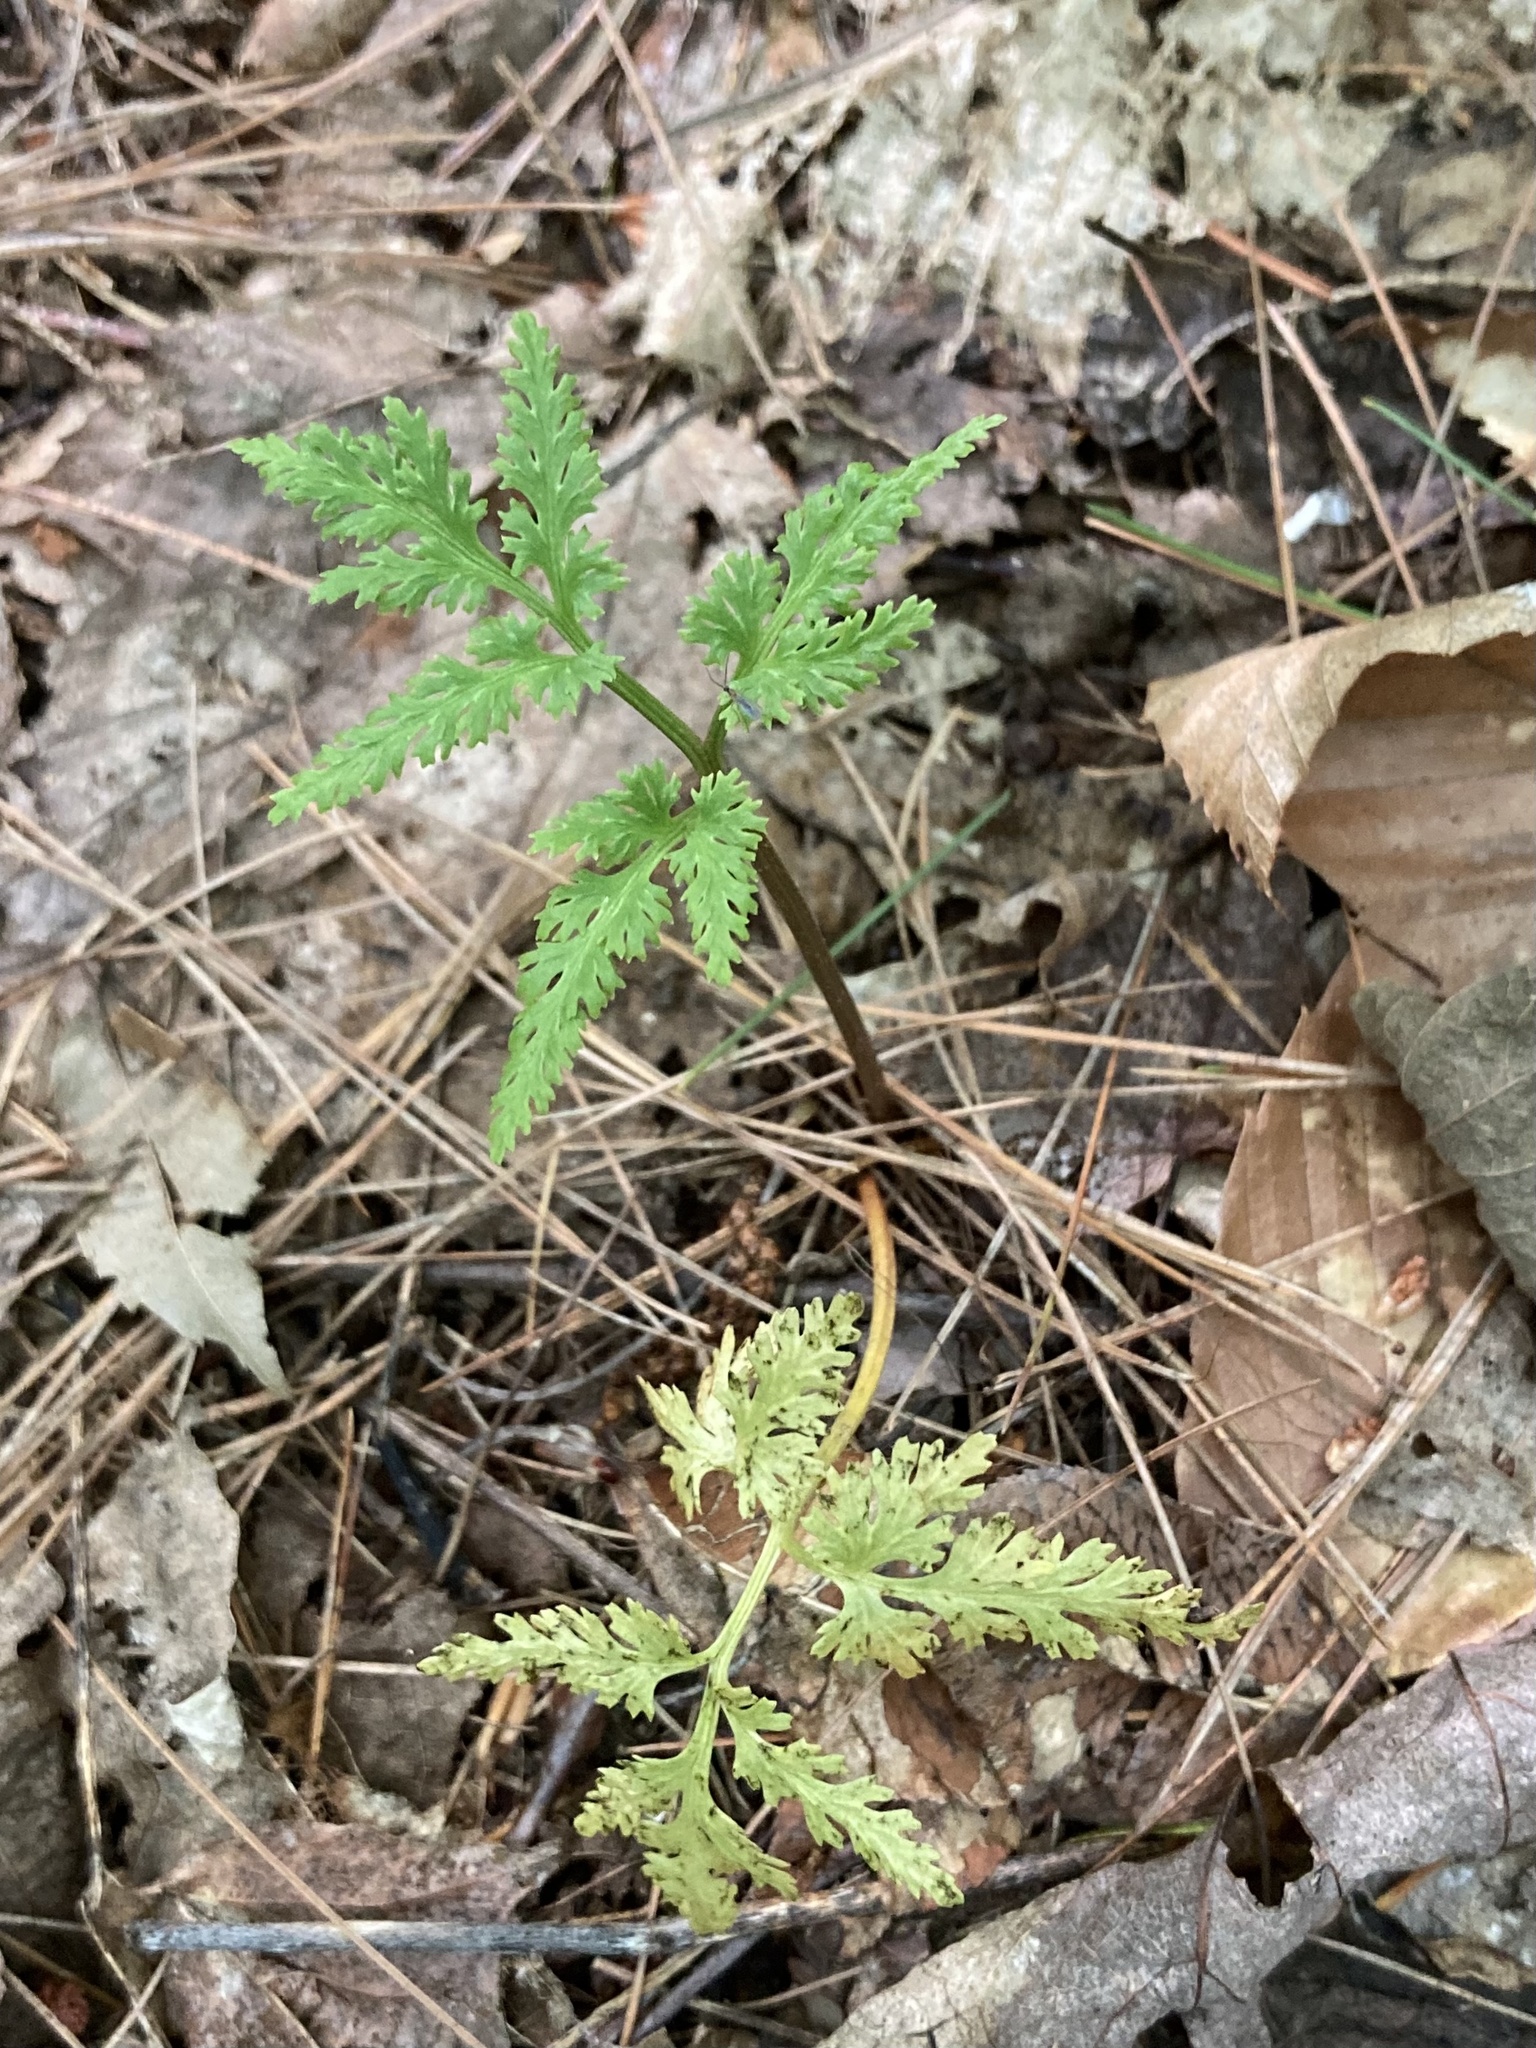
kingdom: Plantae
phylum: Tracheophyta
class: Polypodiopsida
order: Ophioglossales
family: Ophioglossaceae
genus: Sceptridium
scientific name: Sceptridium dissectum
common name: Cut-leaved grapefern
